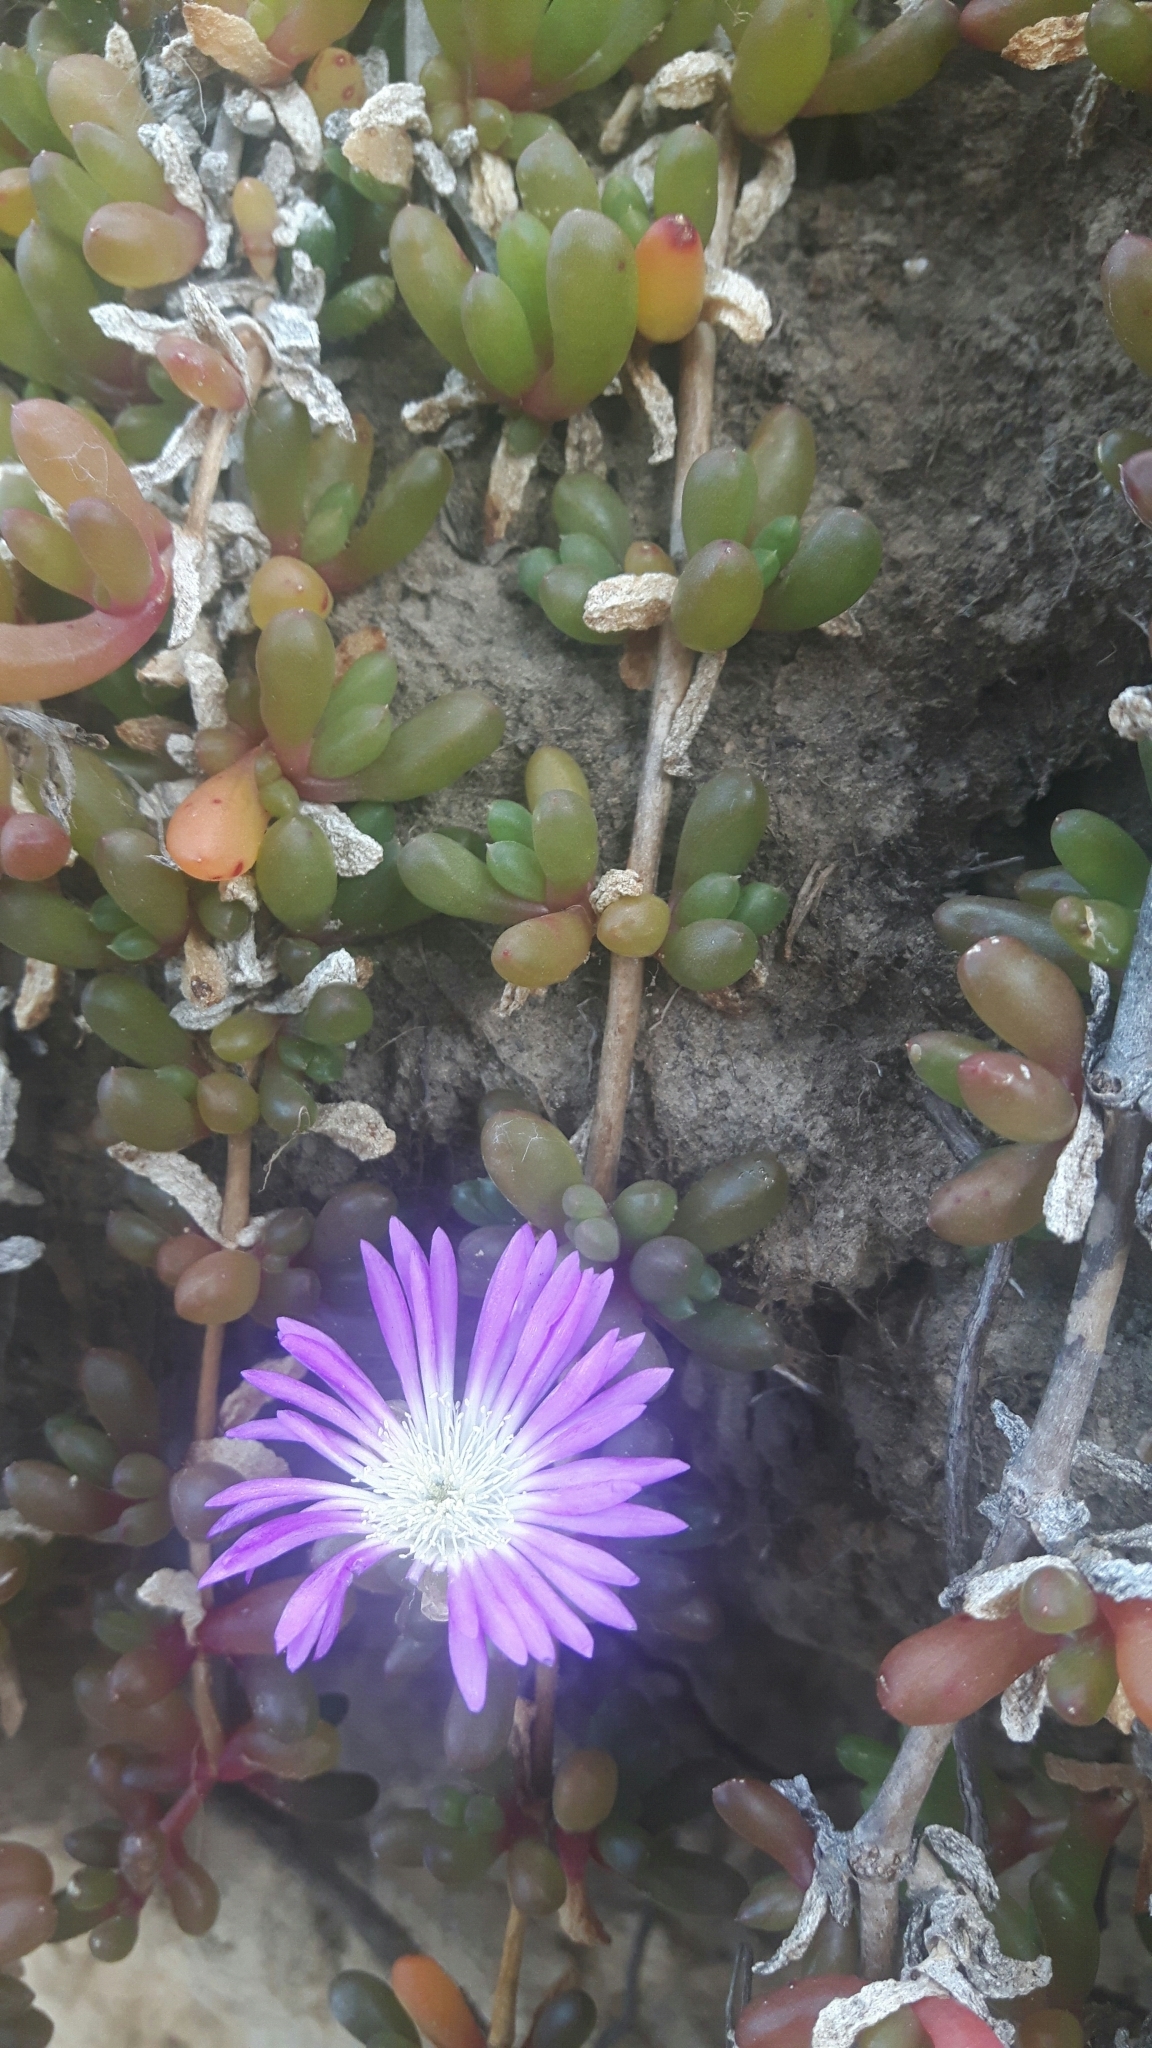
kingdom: Plantae
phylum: Tracheophyta
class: Magnoliopsida
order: Caryophyllales
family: Aizoaceae
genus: Disphyma
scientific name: Disphyma australe
